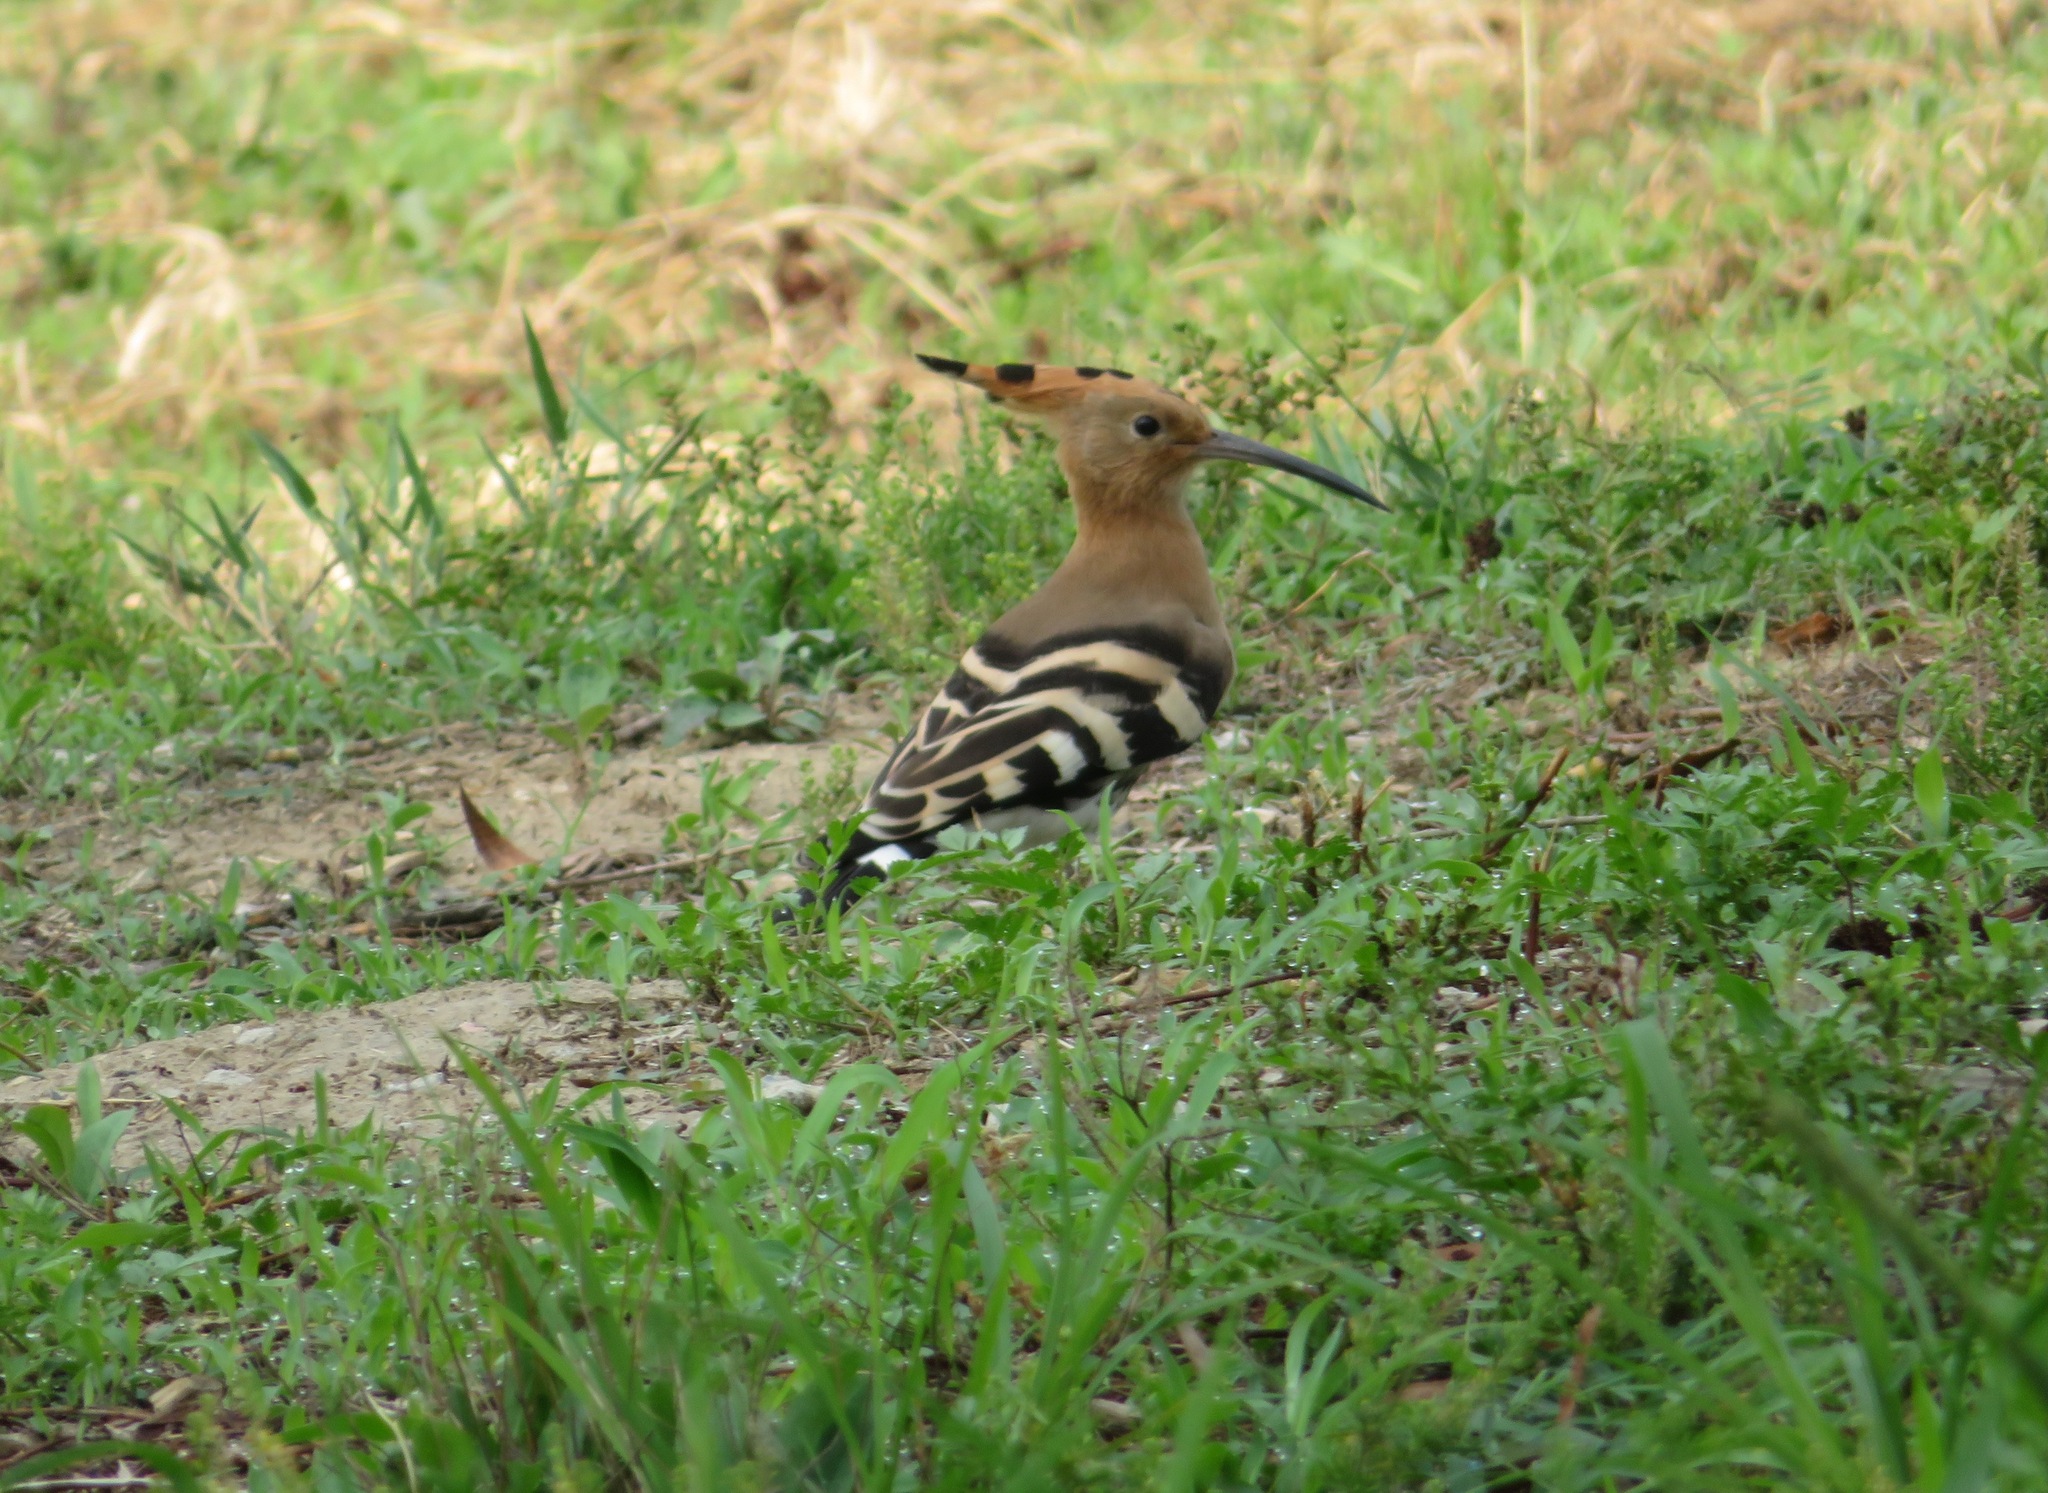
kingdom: Animalia
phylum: Chordata
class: Aves
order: Bucerotiformes
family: Upupidae
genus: Upupa
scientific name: Upupa epops
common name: Eurasian hoopoe
